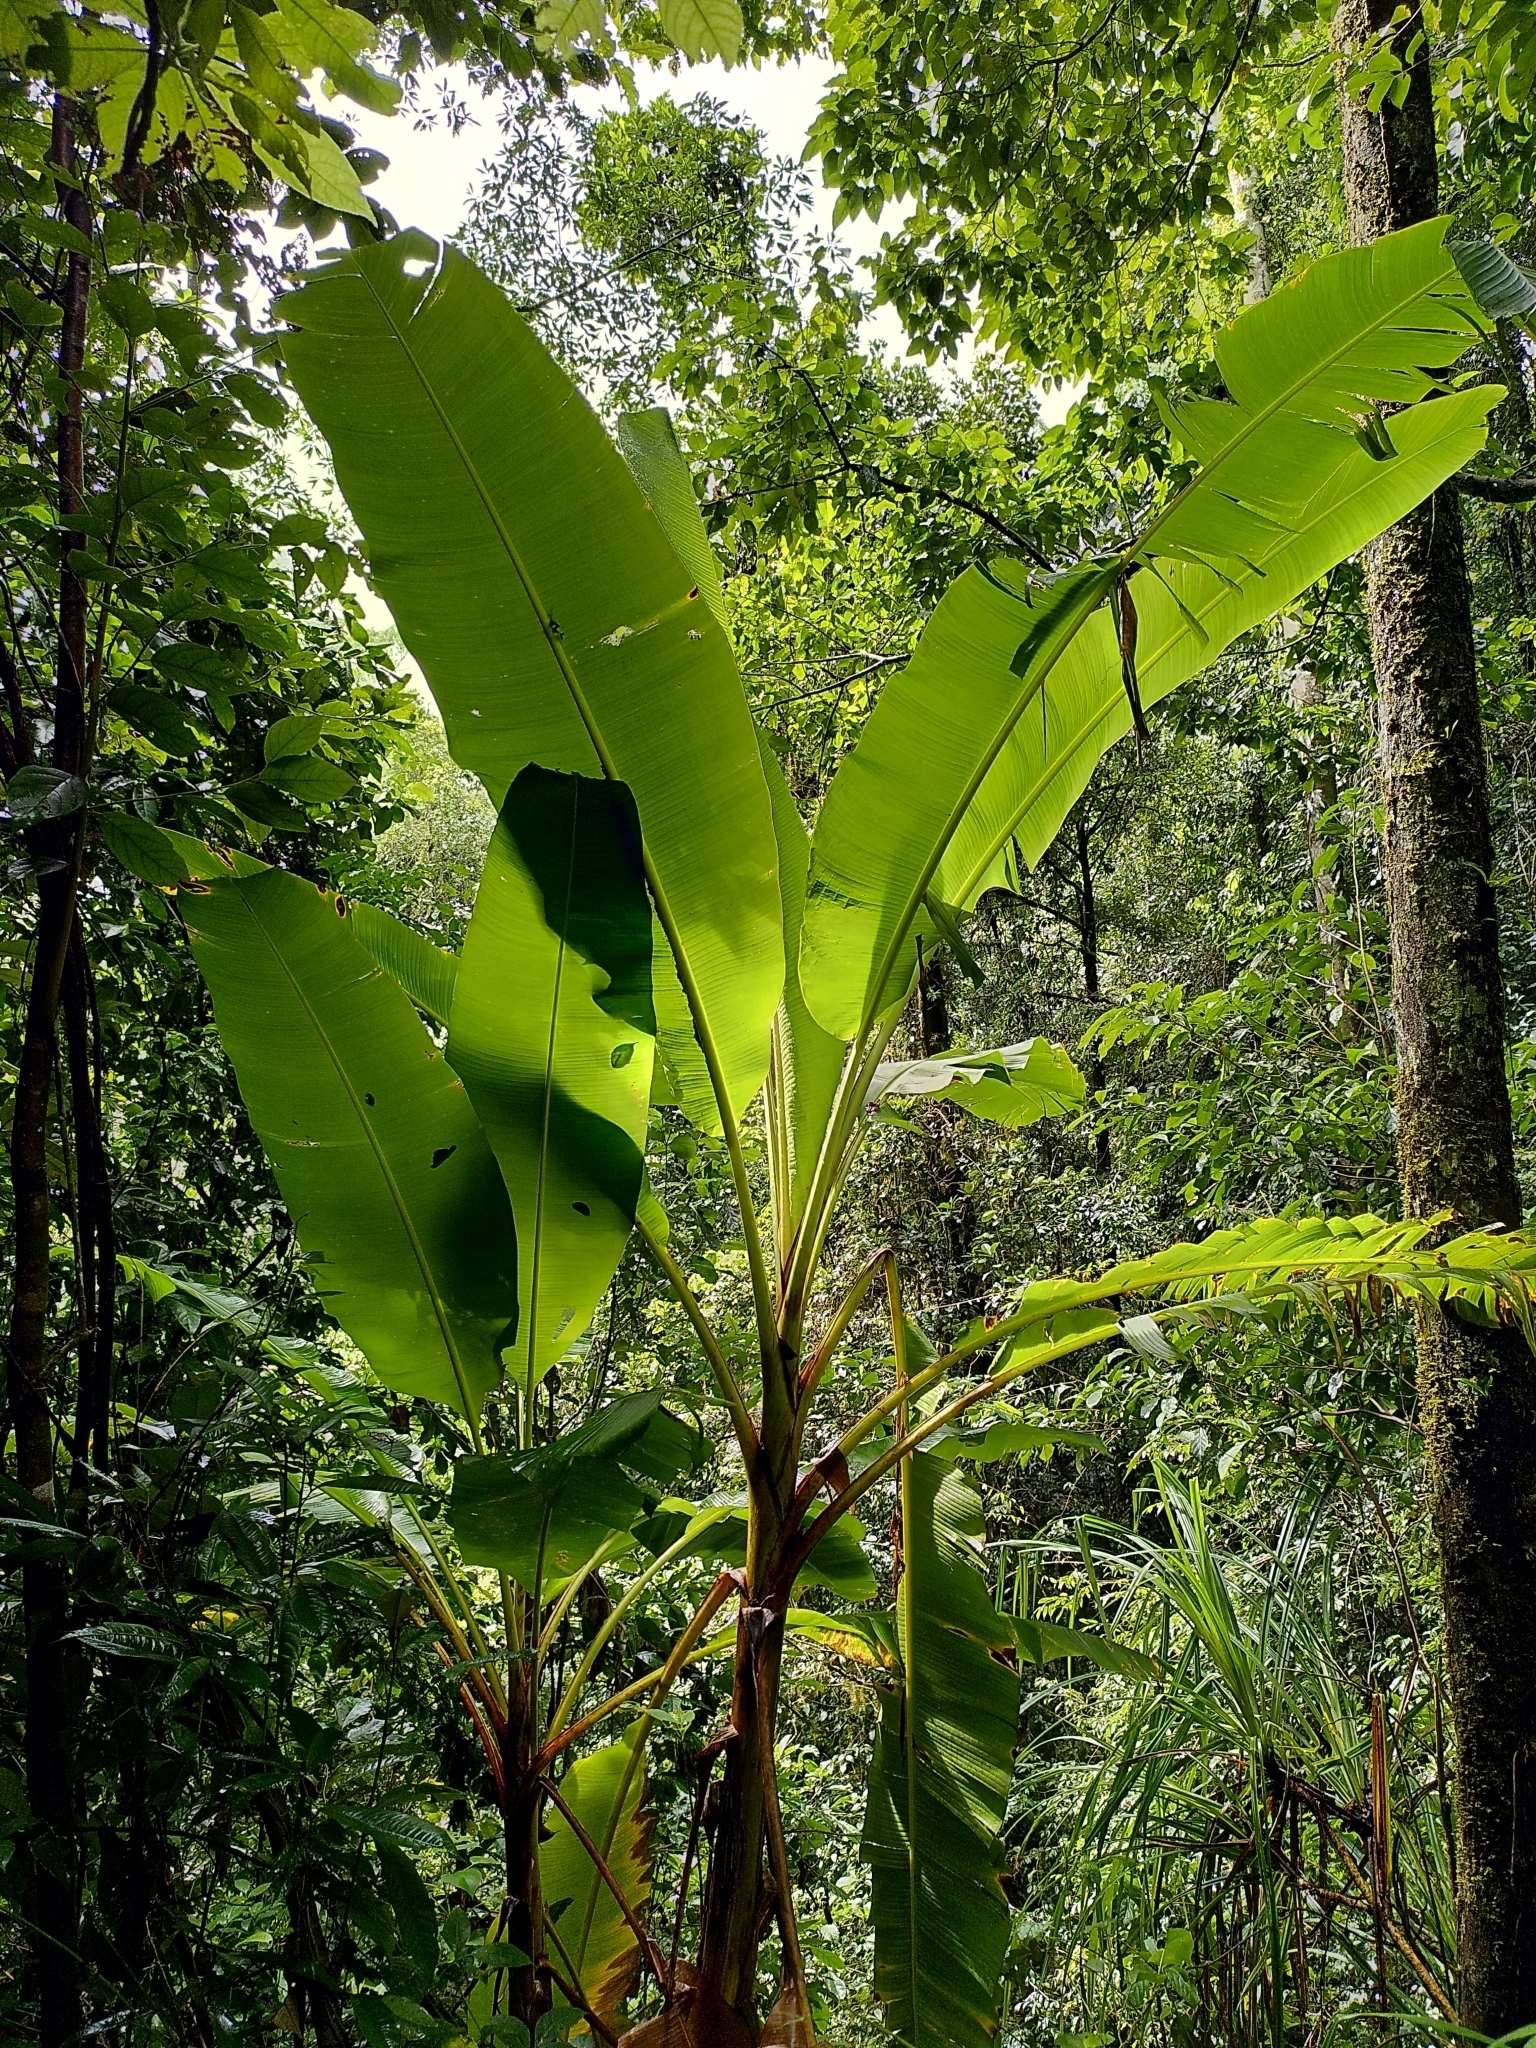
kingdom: Plantae
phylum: Tracheophyta
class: Liliopsida
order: Zingiberales
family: Musaceae
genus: Musa
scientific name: Musa banksii
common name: Maroon-stemmed banana
